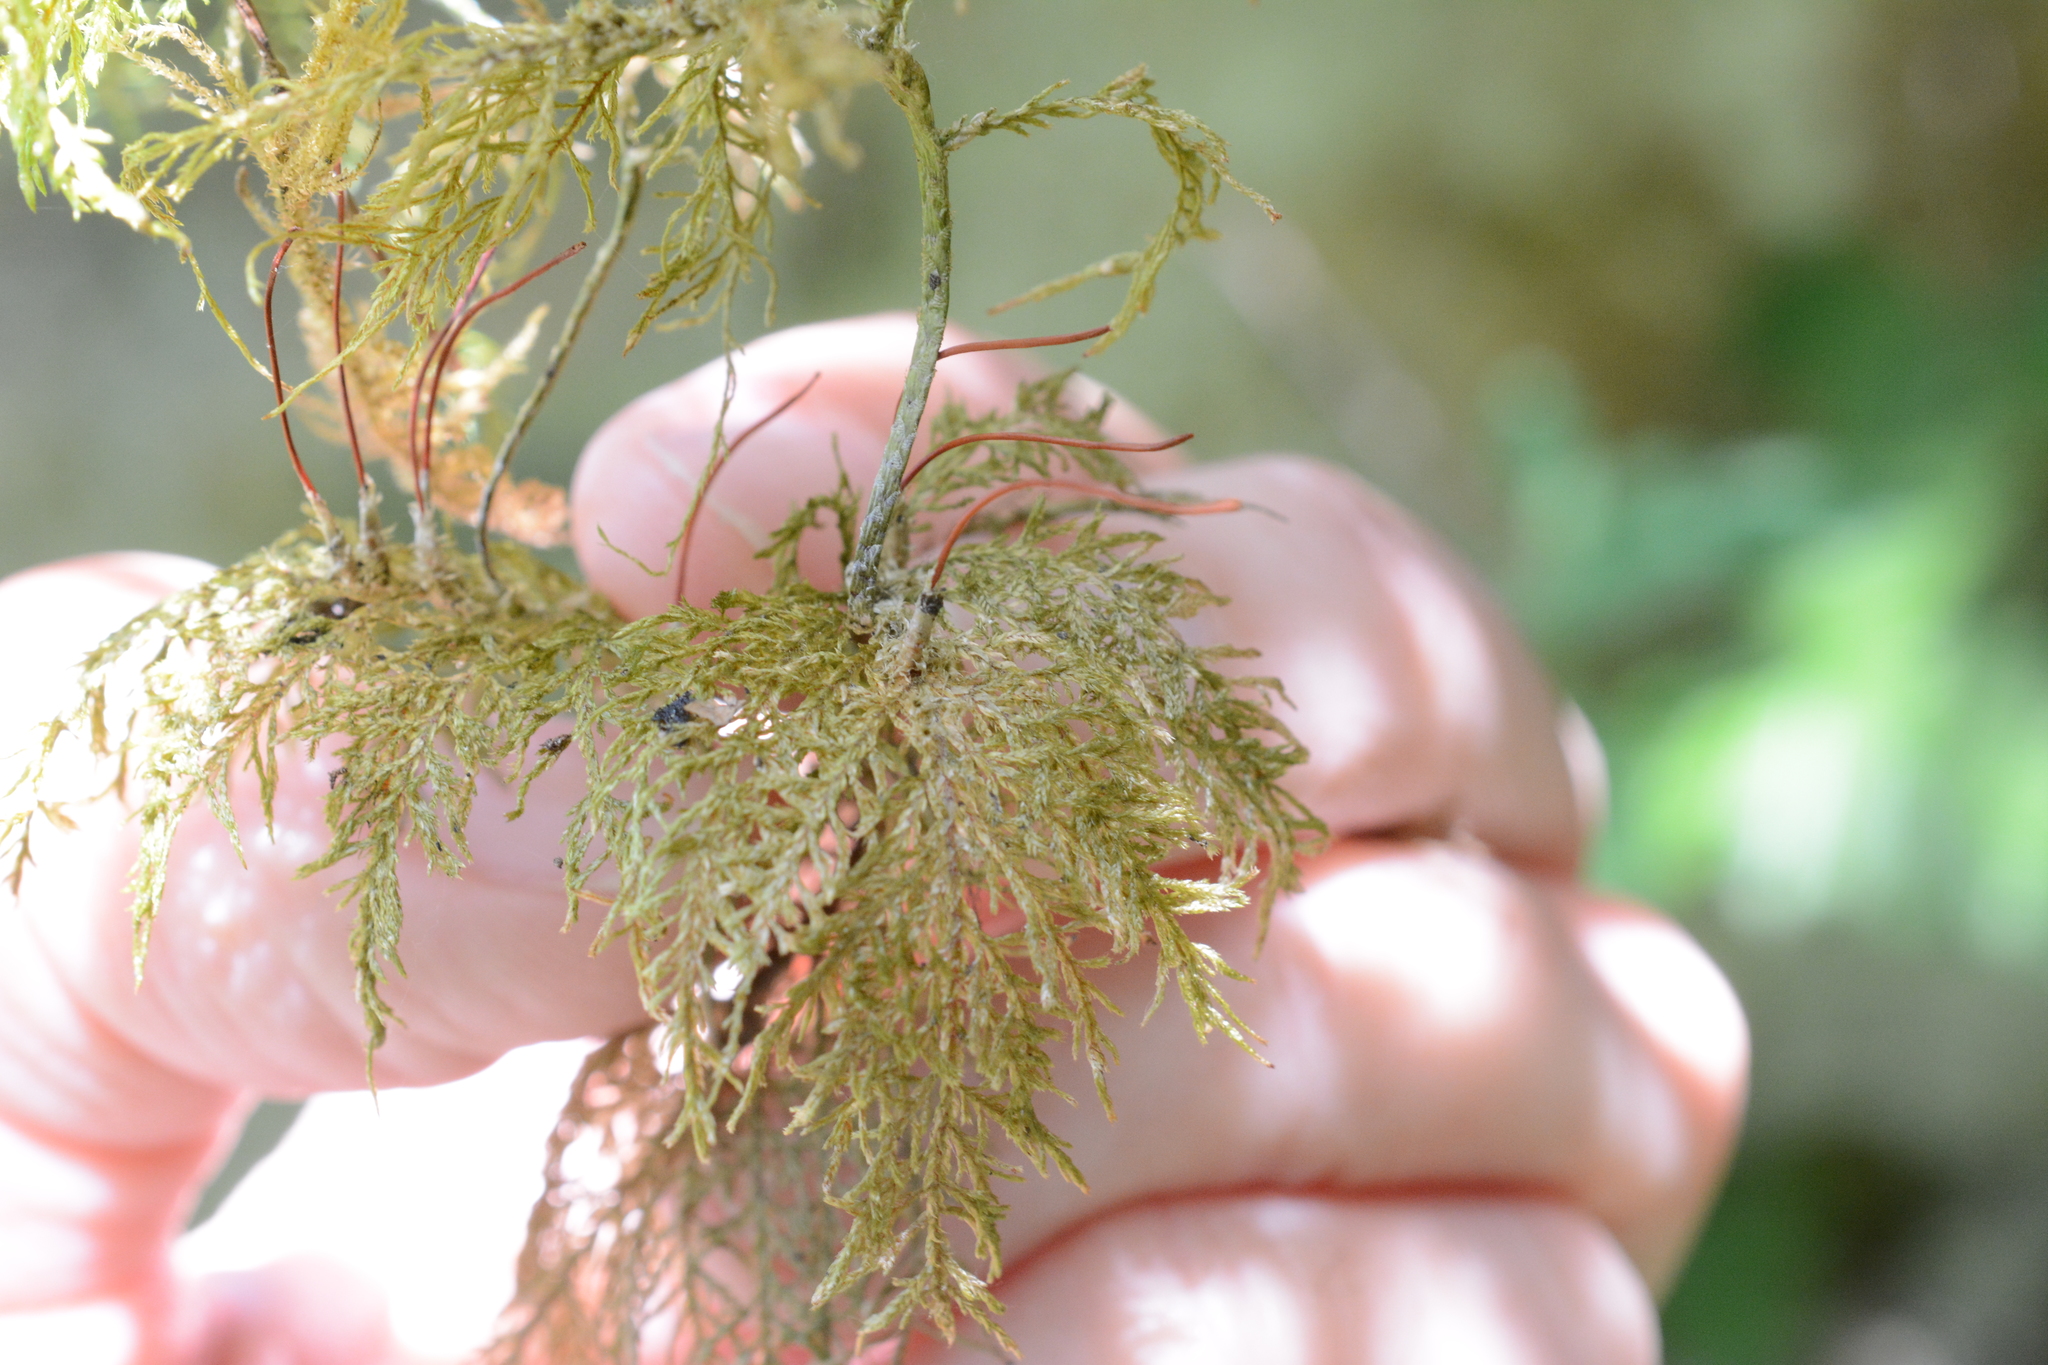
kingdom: Plantae
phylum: Bryophyta
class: Bryopsida
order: Hypnales
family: Hylocomiaceae
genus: Hylocomium
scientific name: Hylocomium splendens
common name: Stairstep moss
